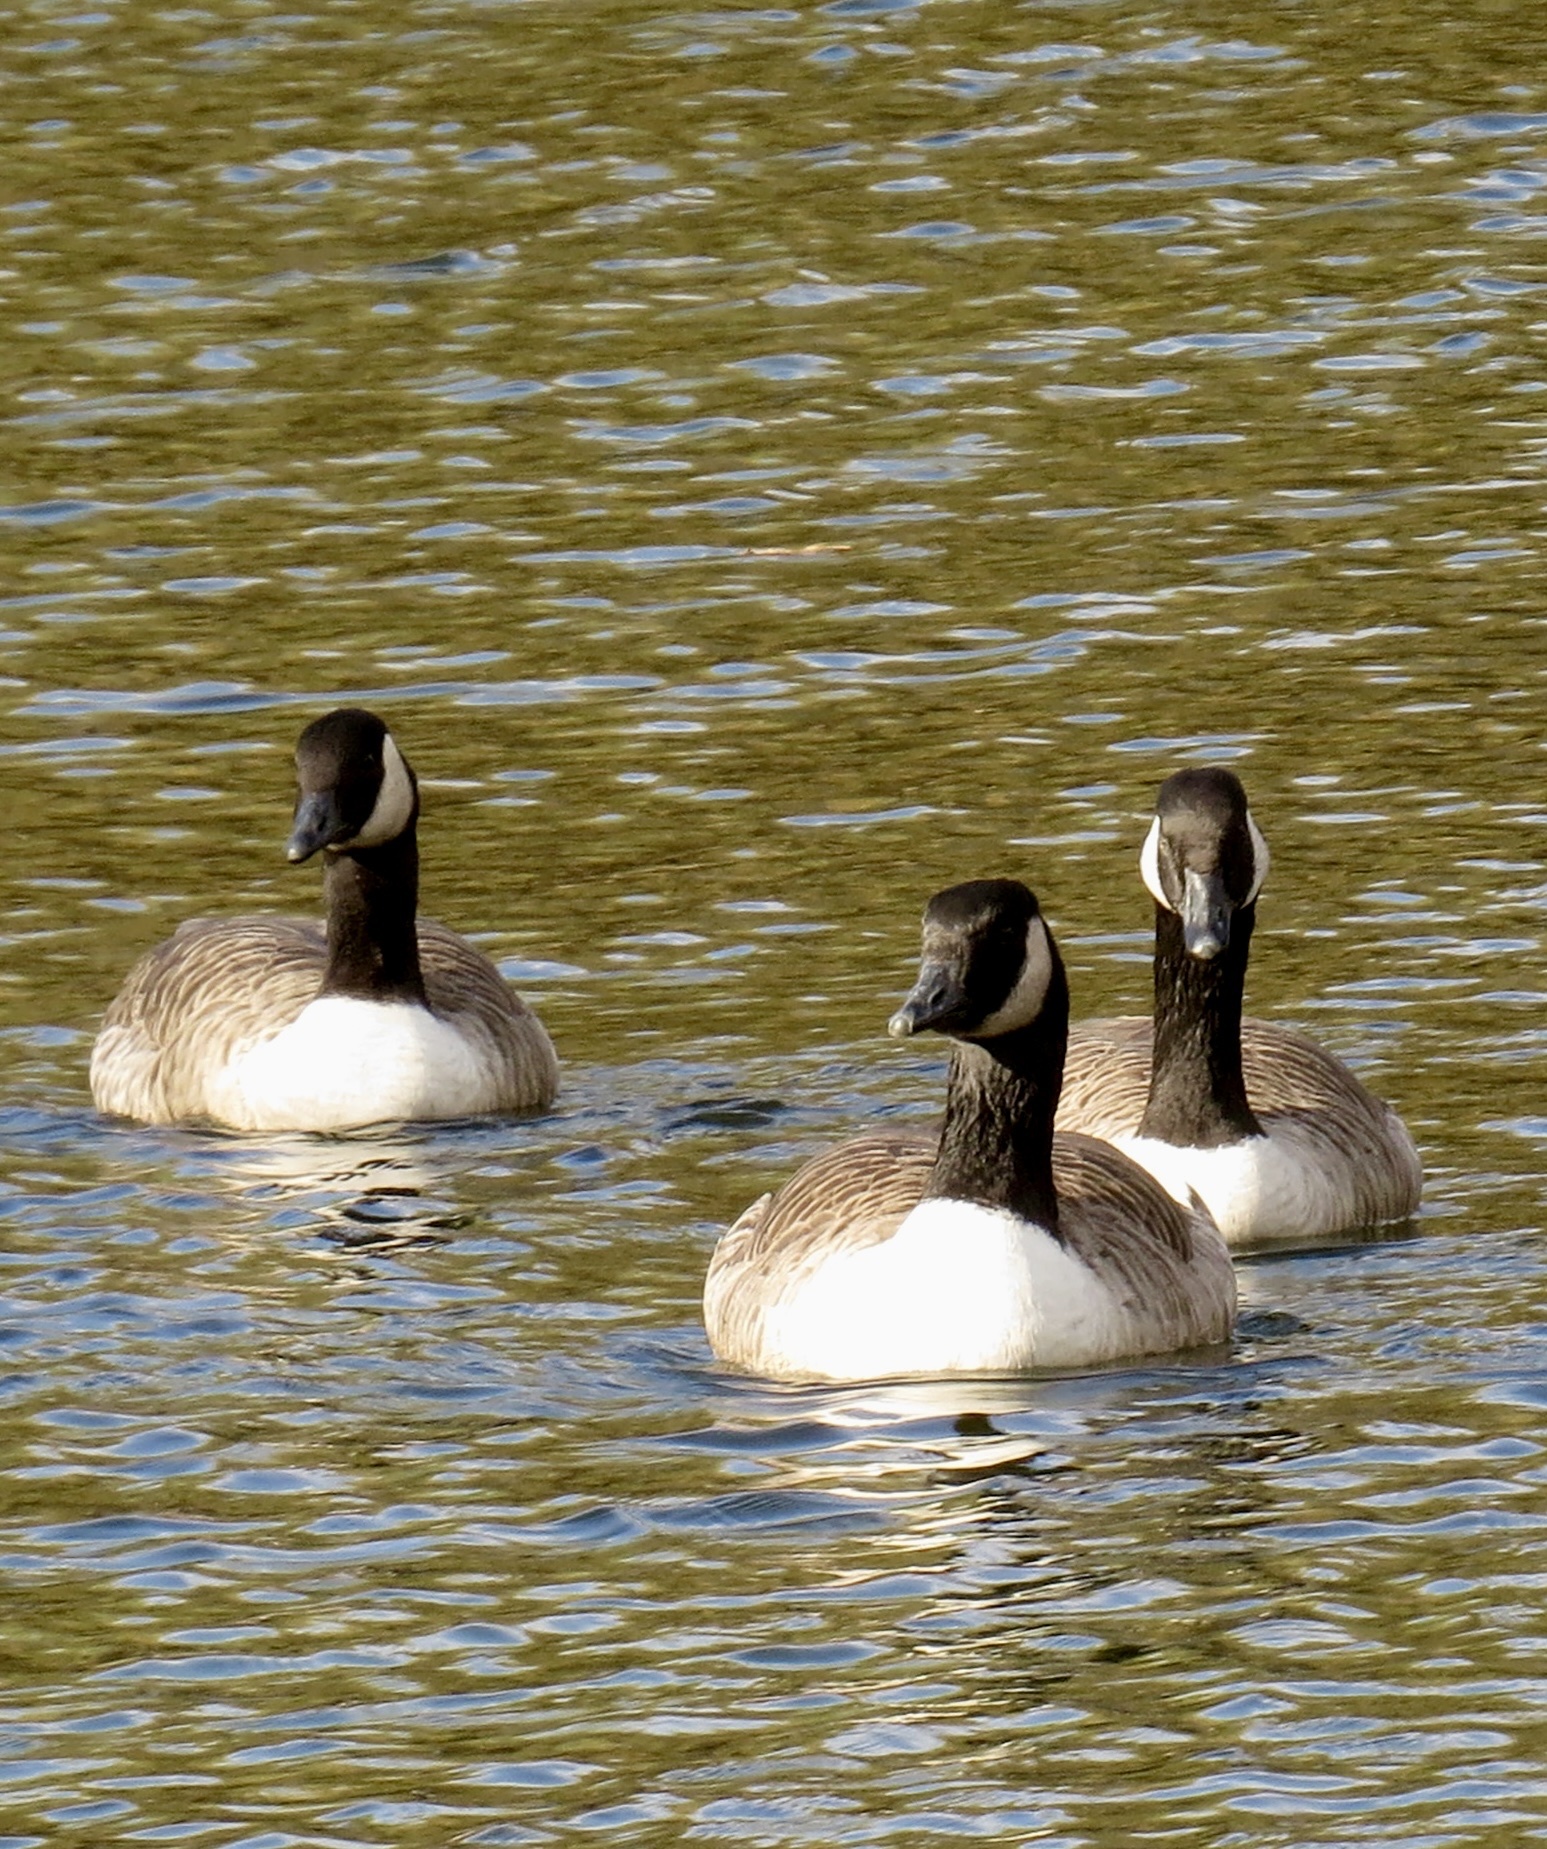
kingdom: Animalia
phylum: Chordata
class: Aves
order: Anseriformes
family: Anatidae
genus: Branta
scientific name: Branta canadensis
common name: Canada goose
